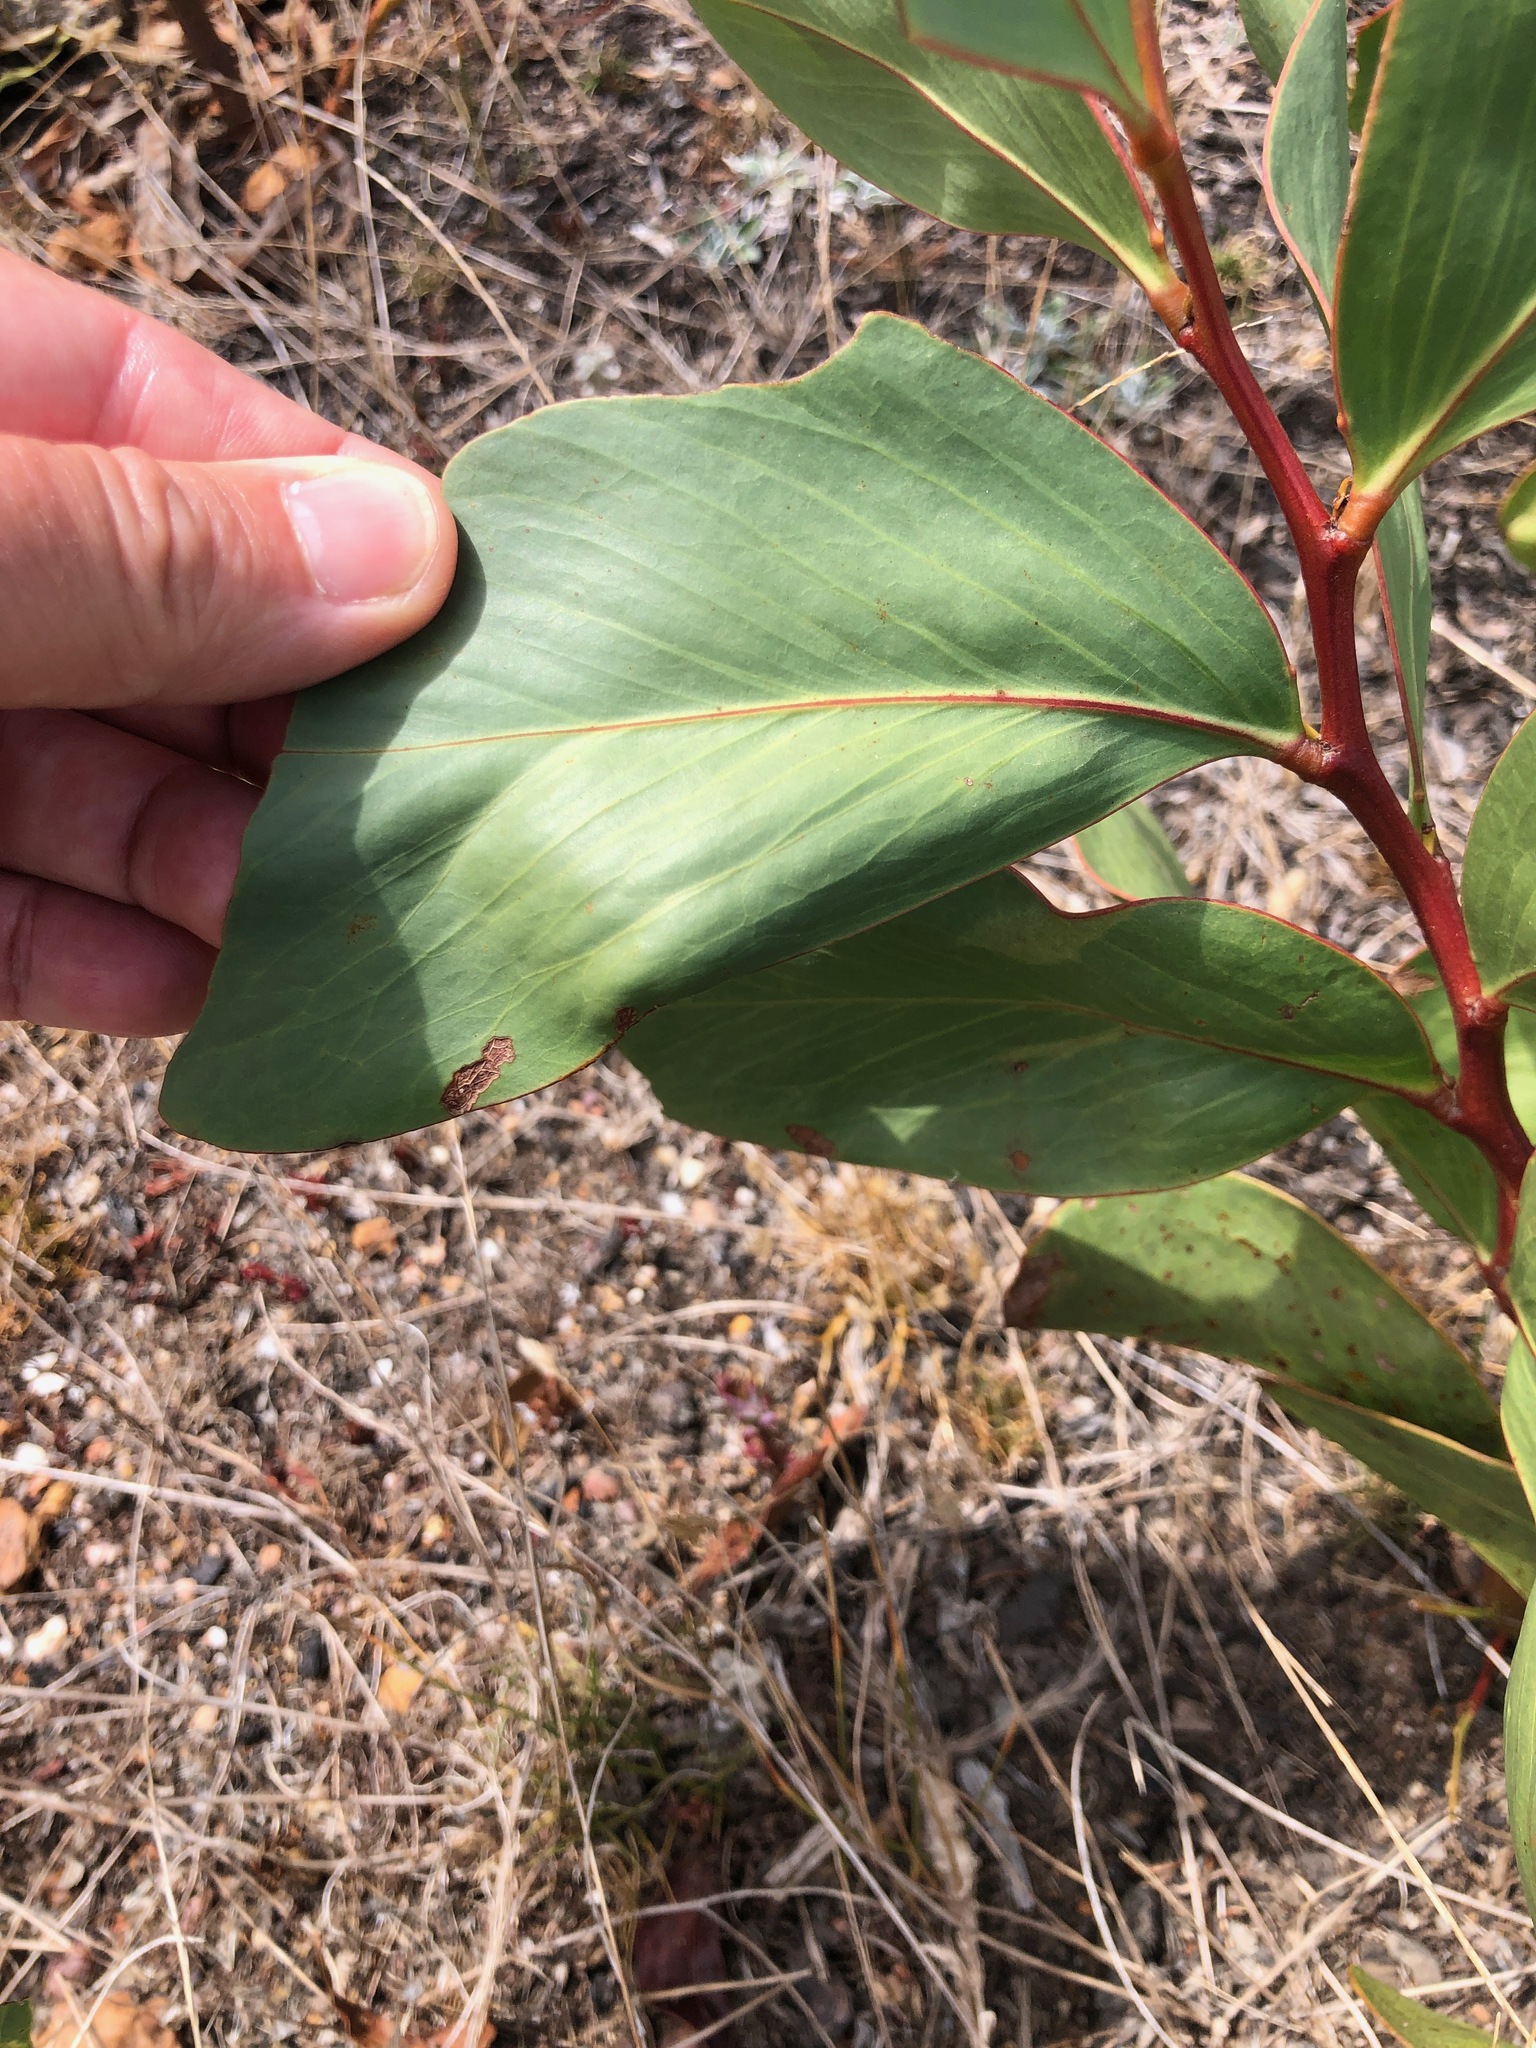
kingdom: Plantae
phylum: Tracheophyta
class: Magnoliopsida
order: Fabales
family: Fabaceae
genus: Acacia
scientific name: Acacia pycnantha
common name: Golden wattle
